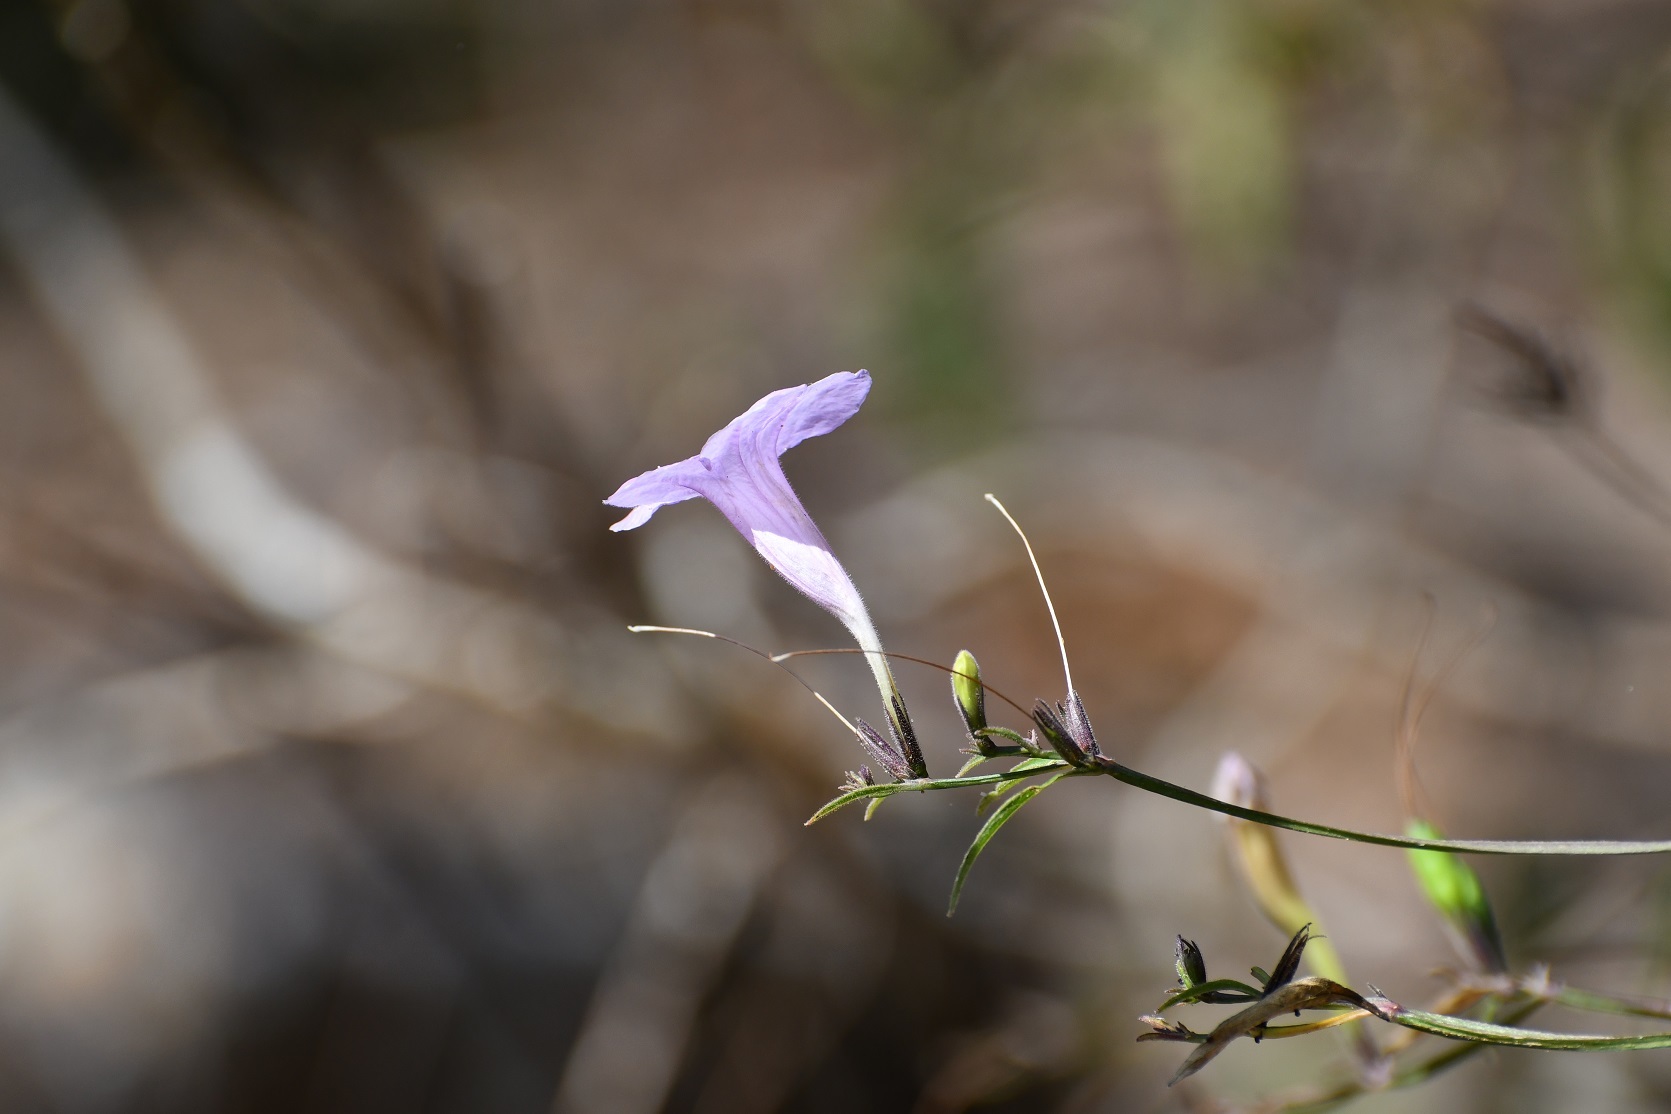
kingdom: Plantae
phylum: Tracheophyta
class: Magnoliopsida
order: Lamiales
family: Acanthaceae
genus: Ruellia
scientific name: Ruellia breedlovei
